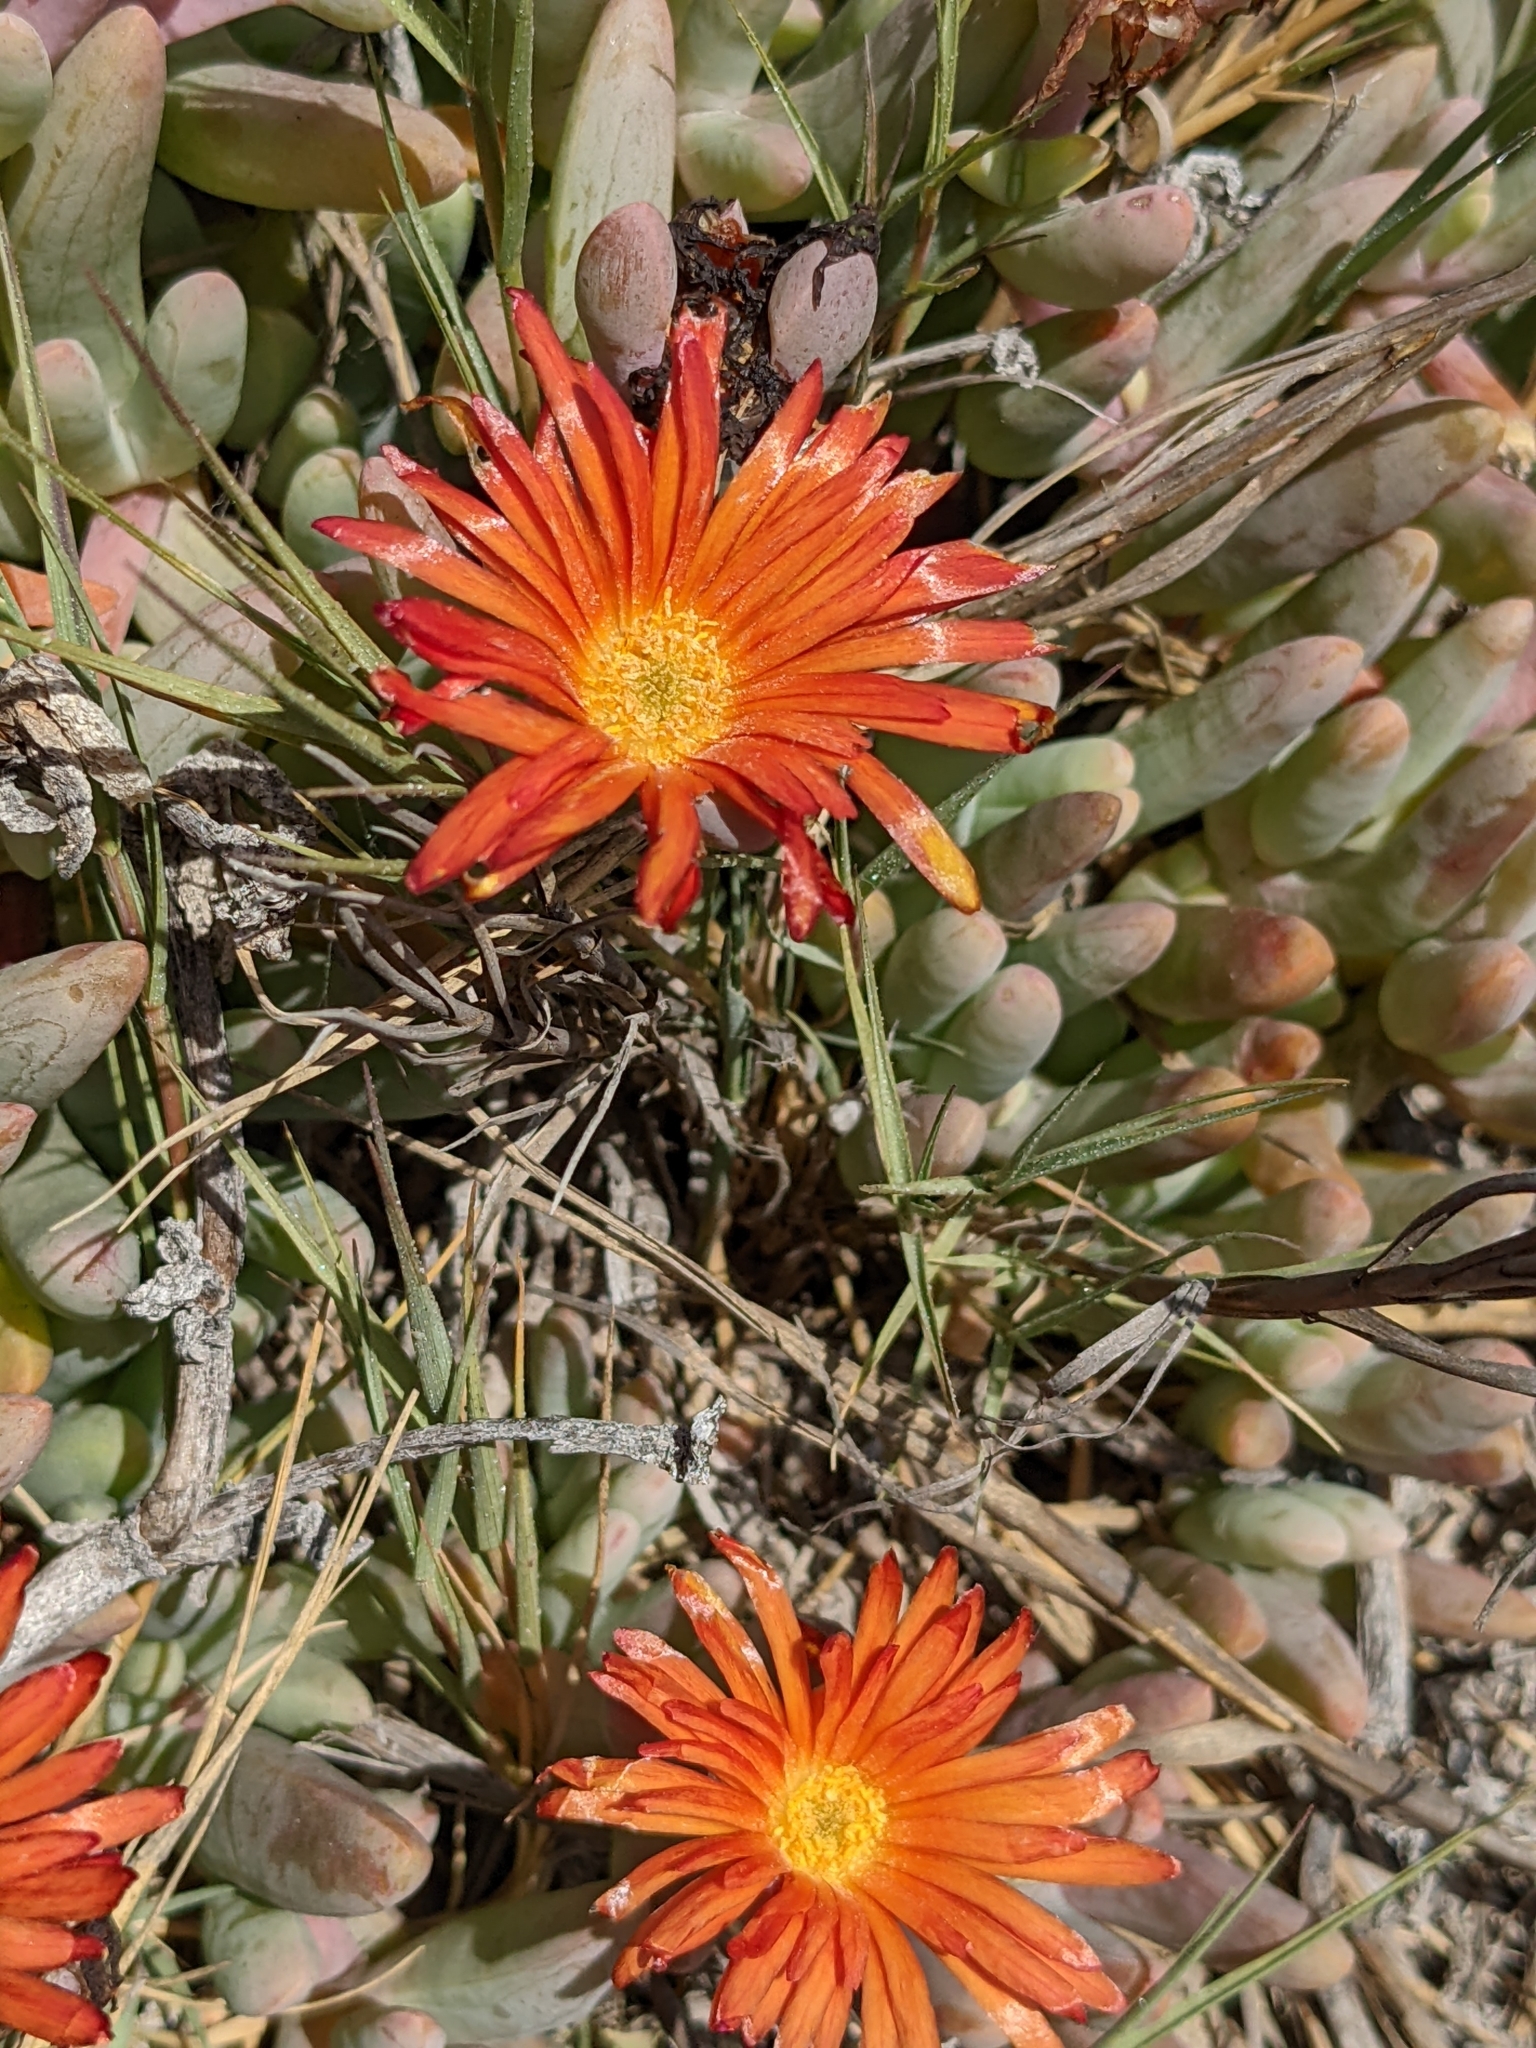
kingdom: Plantae
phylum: Tracheophyta
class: Magnoliopsida
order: Caryophyllales
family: Aizoaceae
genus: Malephora
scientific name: Malephora crocea
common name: Coppery mesemb
